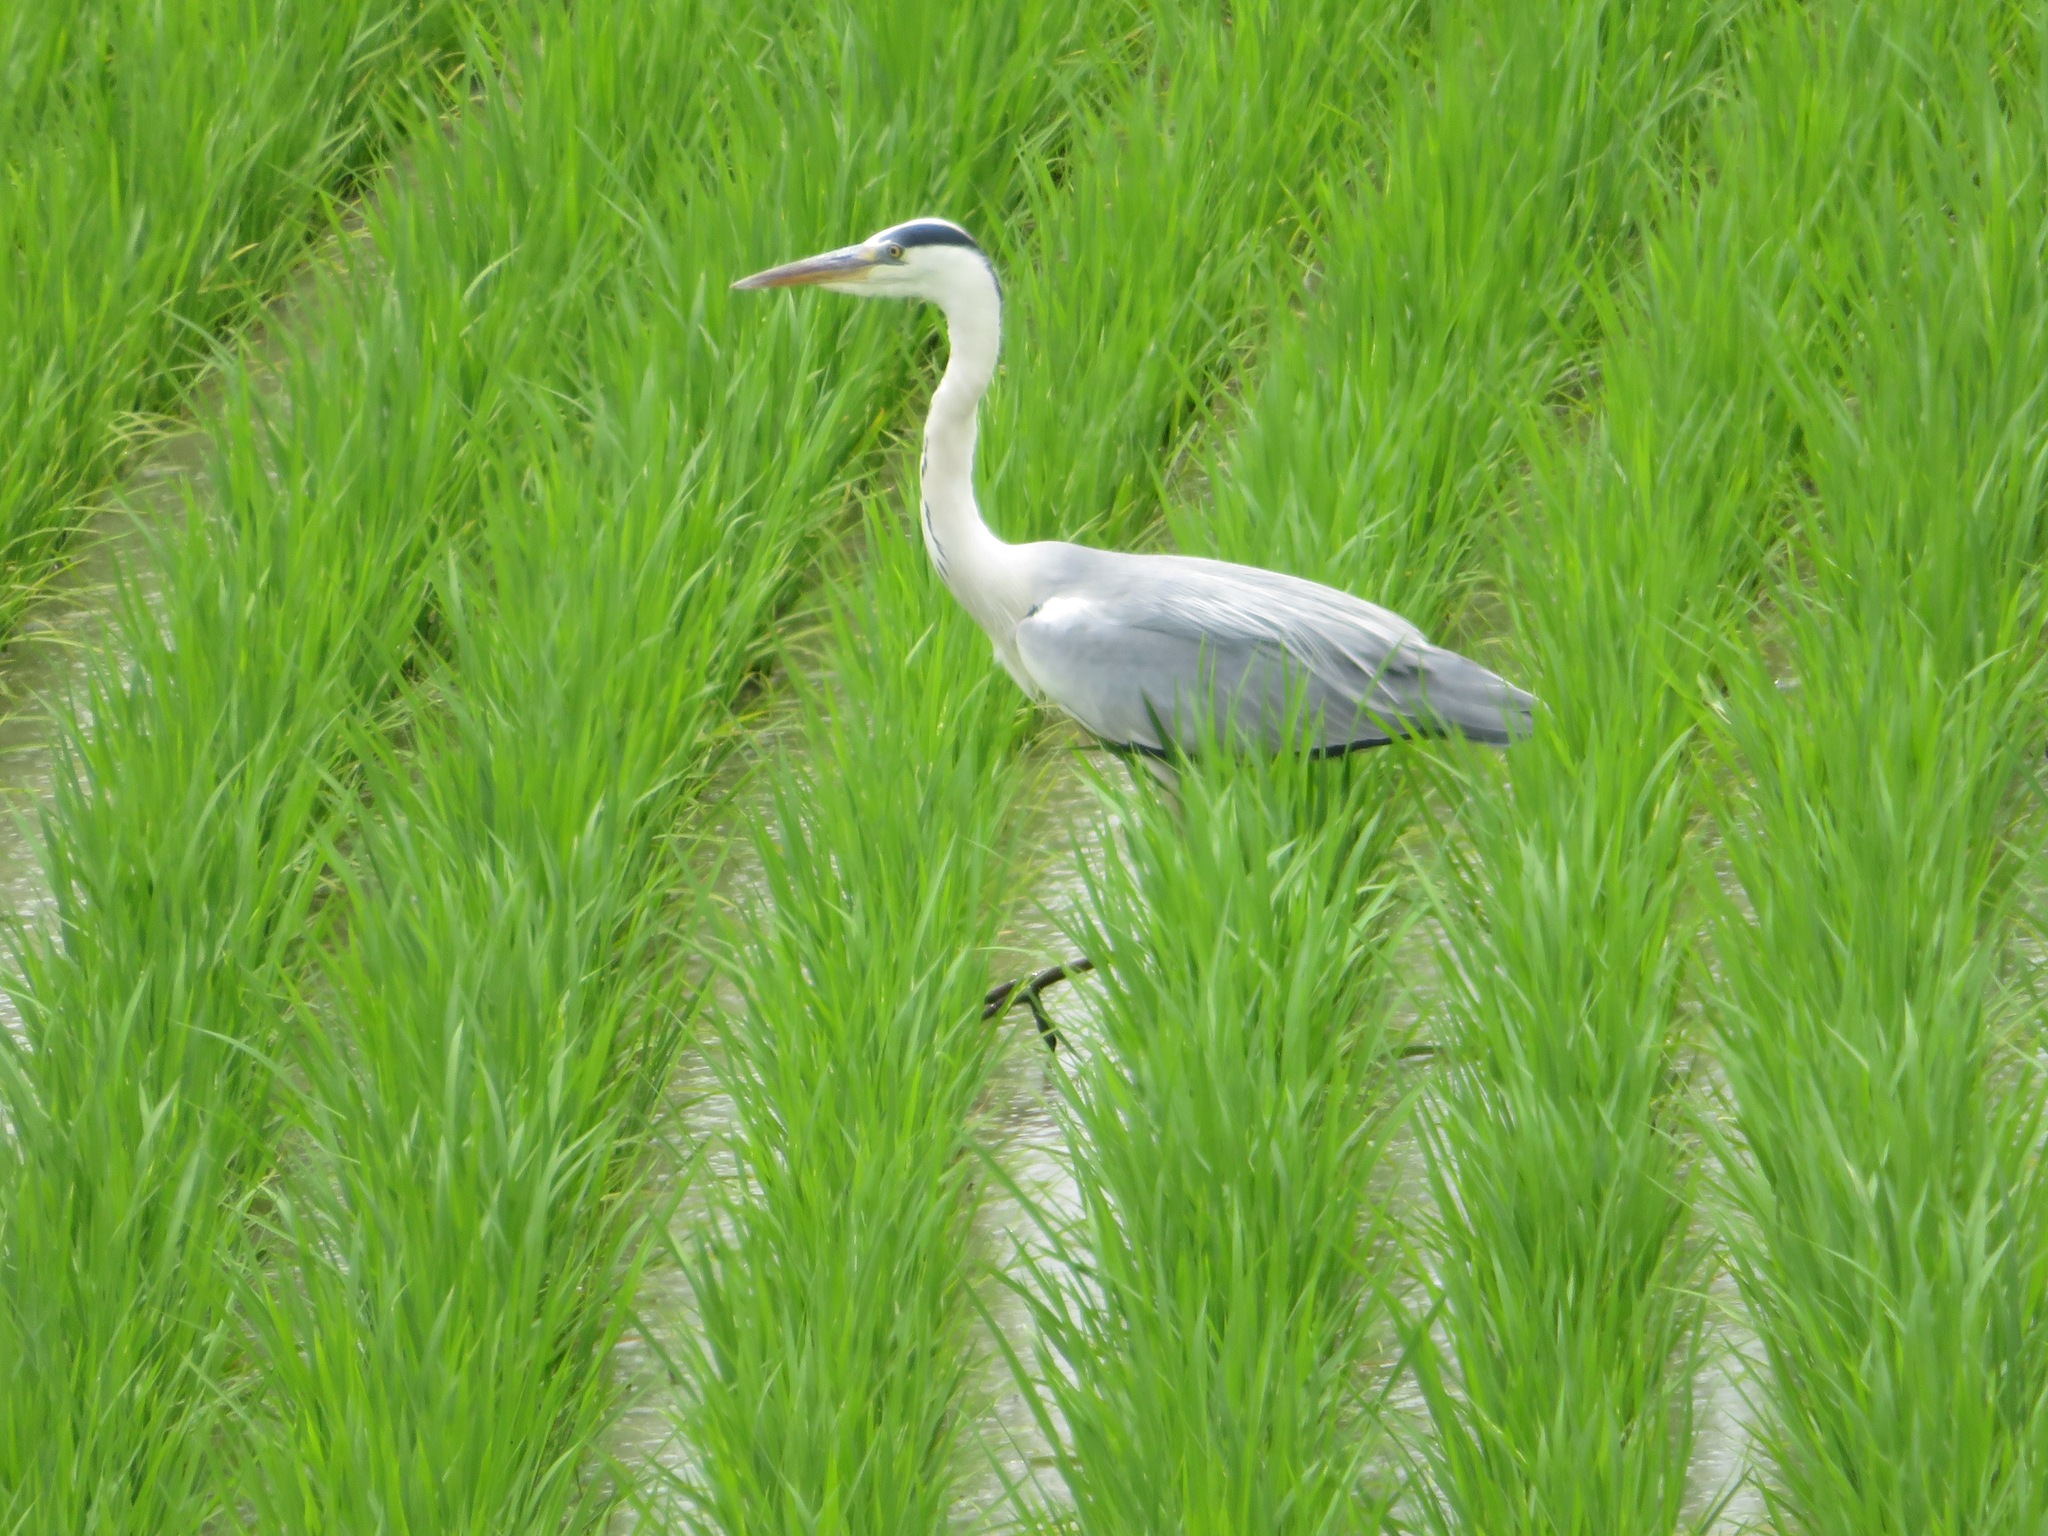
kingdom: Animalia
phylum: Chordata
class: Aves
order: Pelecaniformes
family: Ardeidae
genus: Ardea
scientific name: Ardea cinerea
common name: Grey heron
